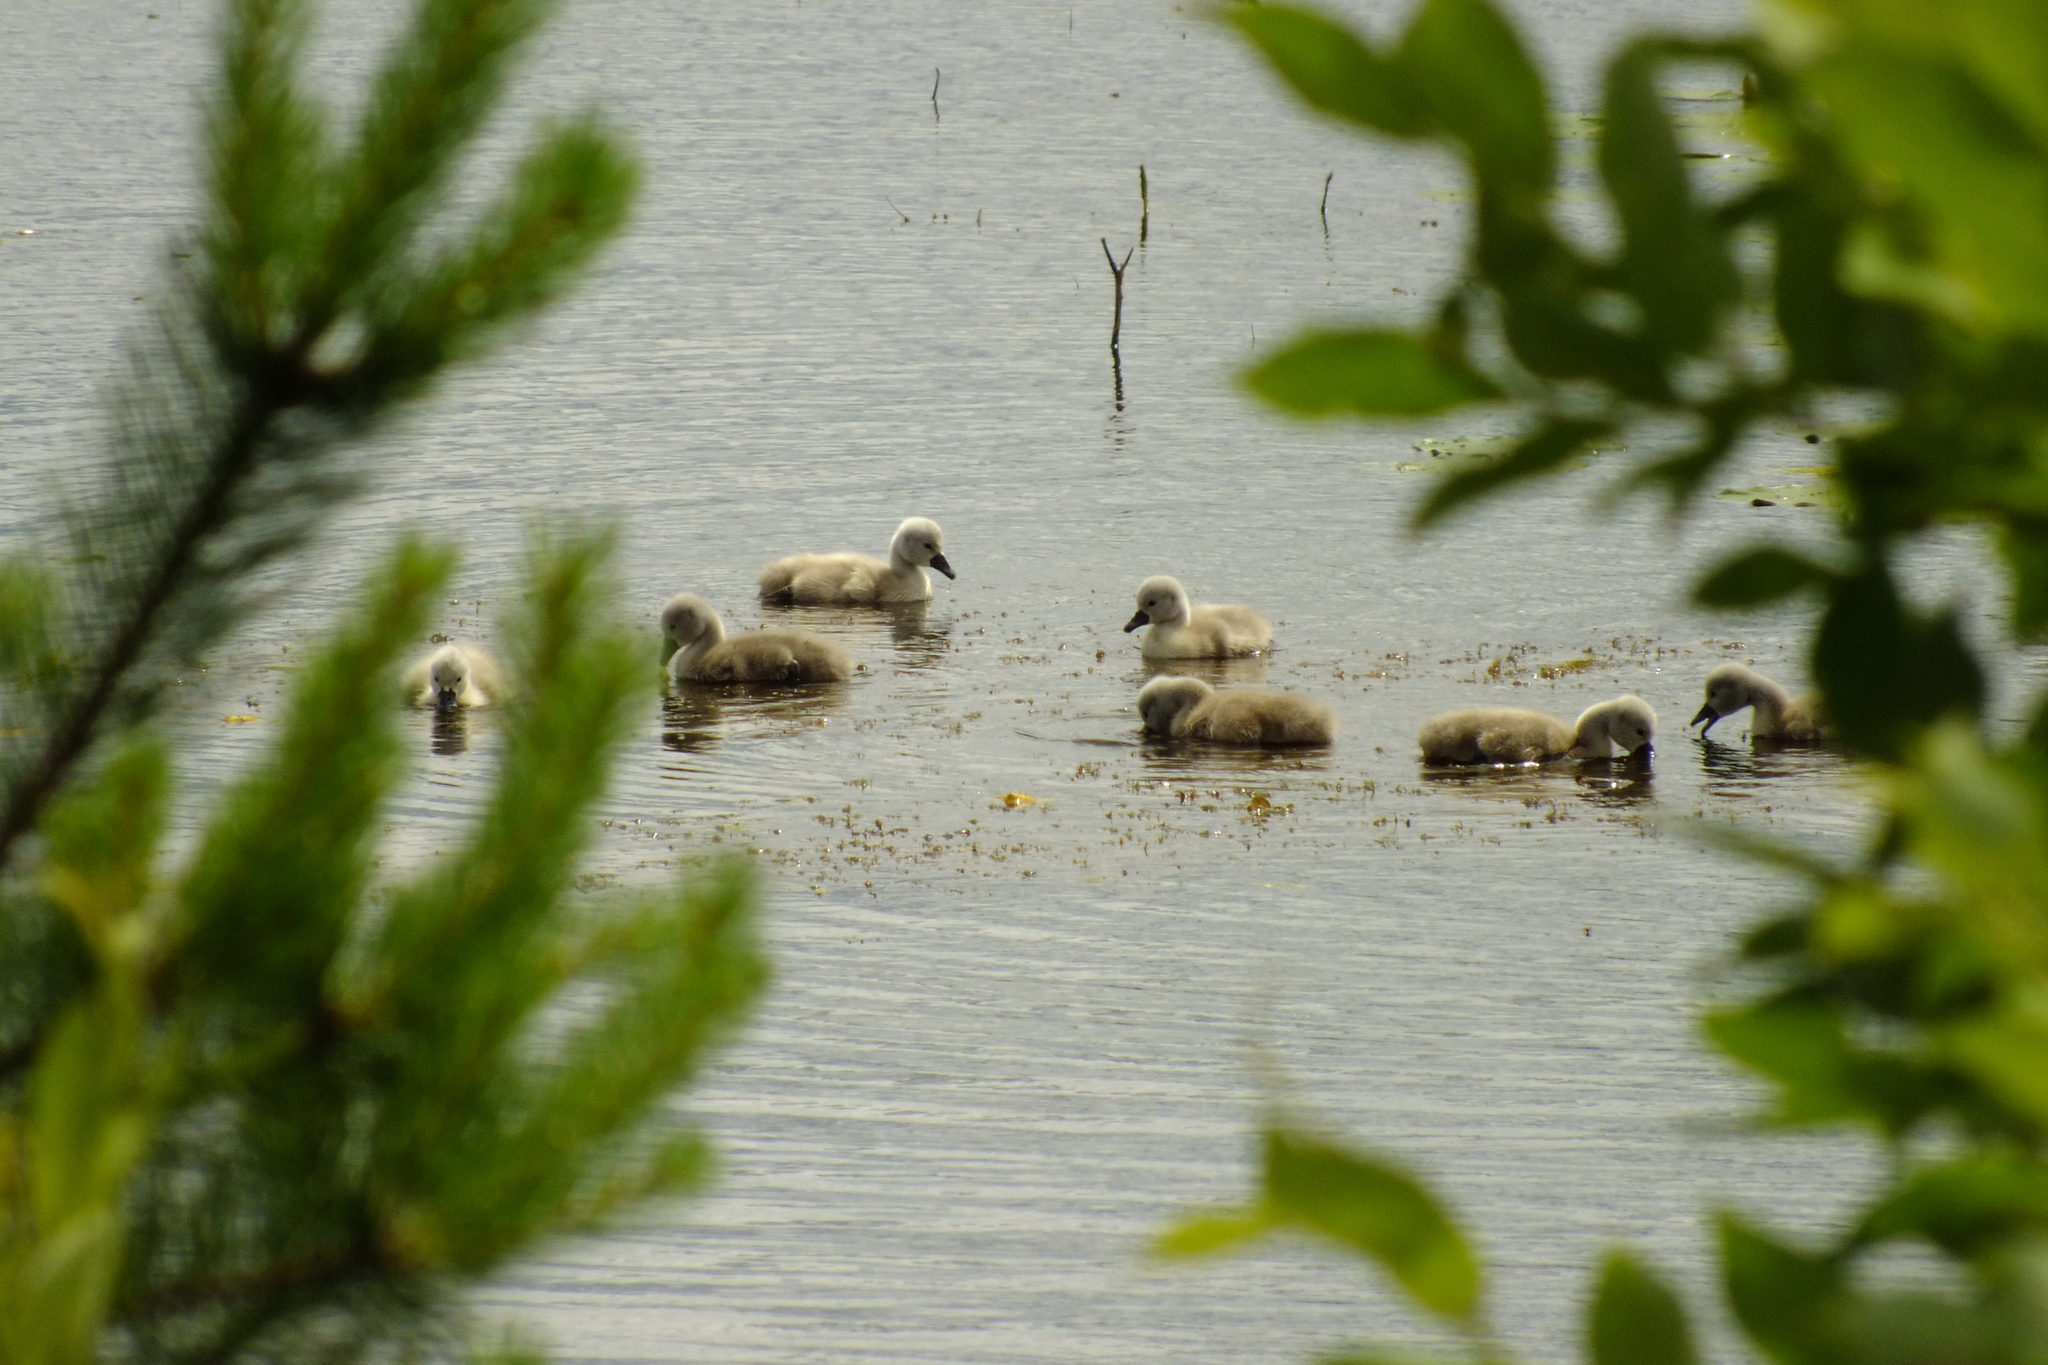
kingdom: Animalia
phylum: Chordata
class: Aves
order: Anseriformes
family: Anatidae
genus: Cygnus
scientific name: Cygnus olor
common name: Mute swan
